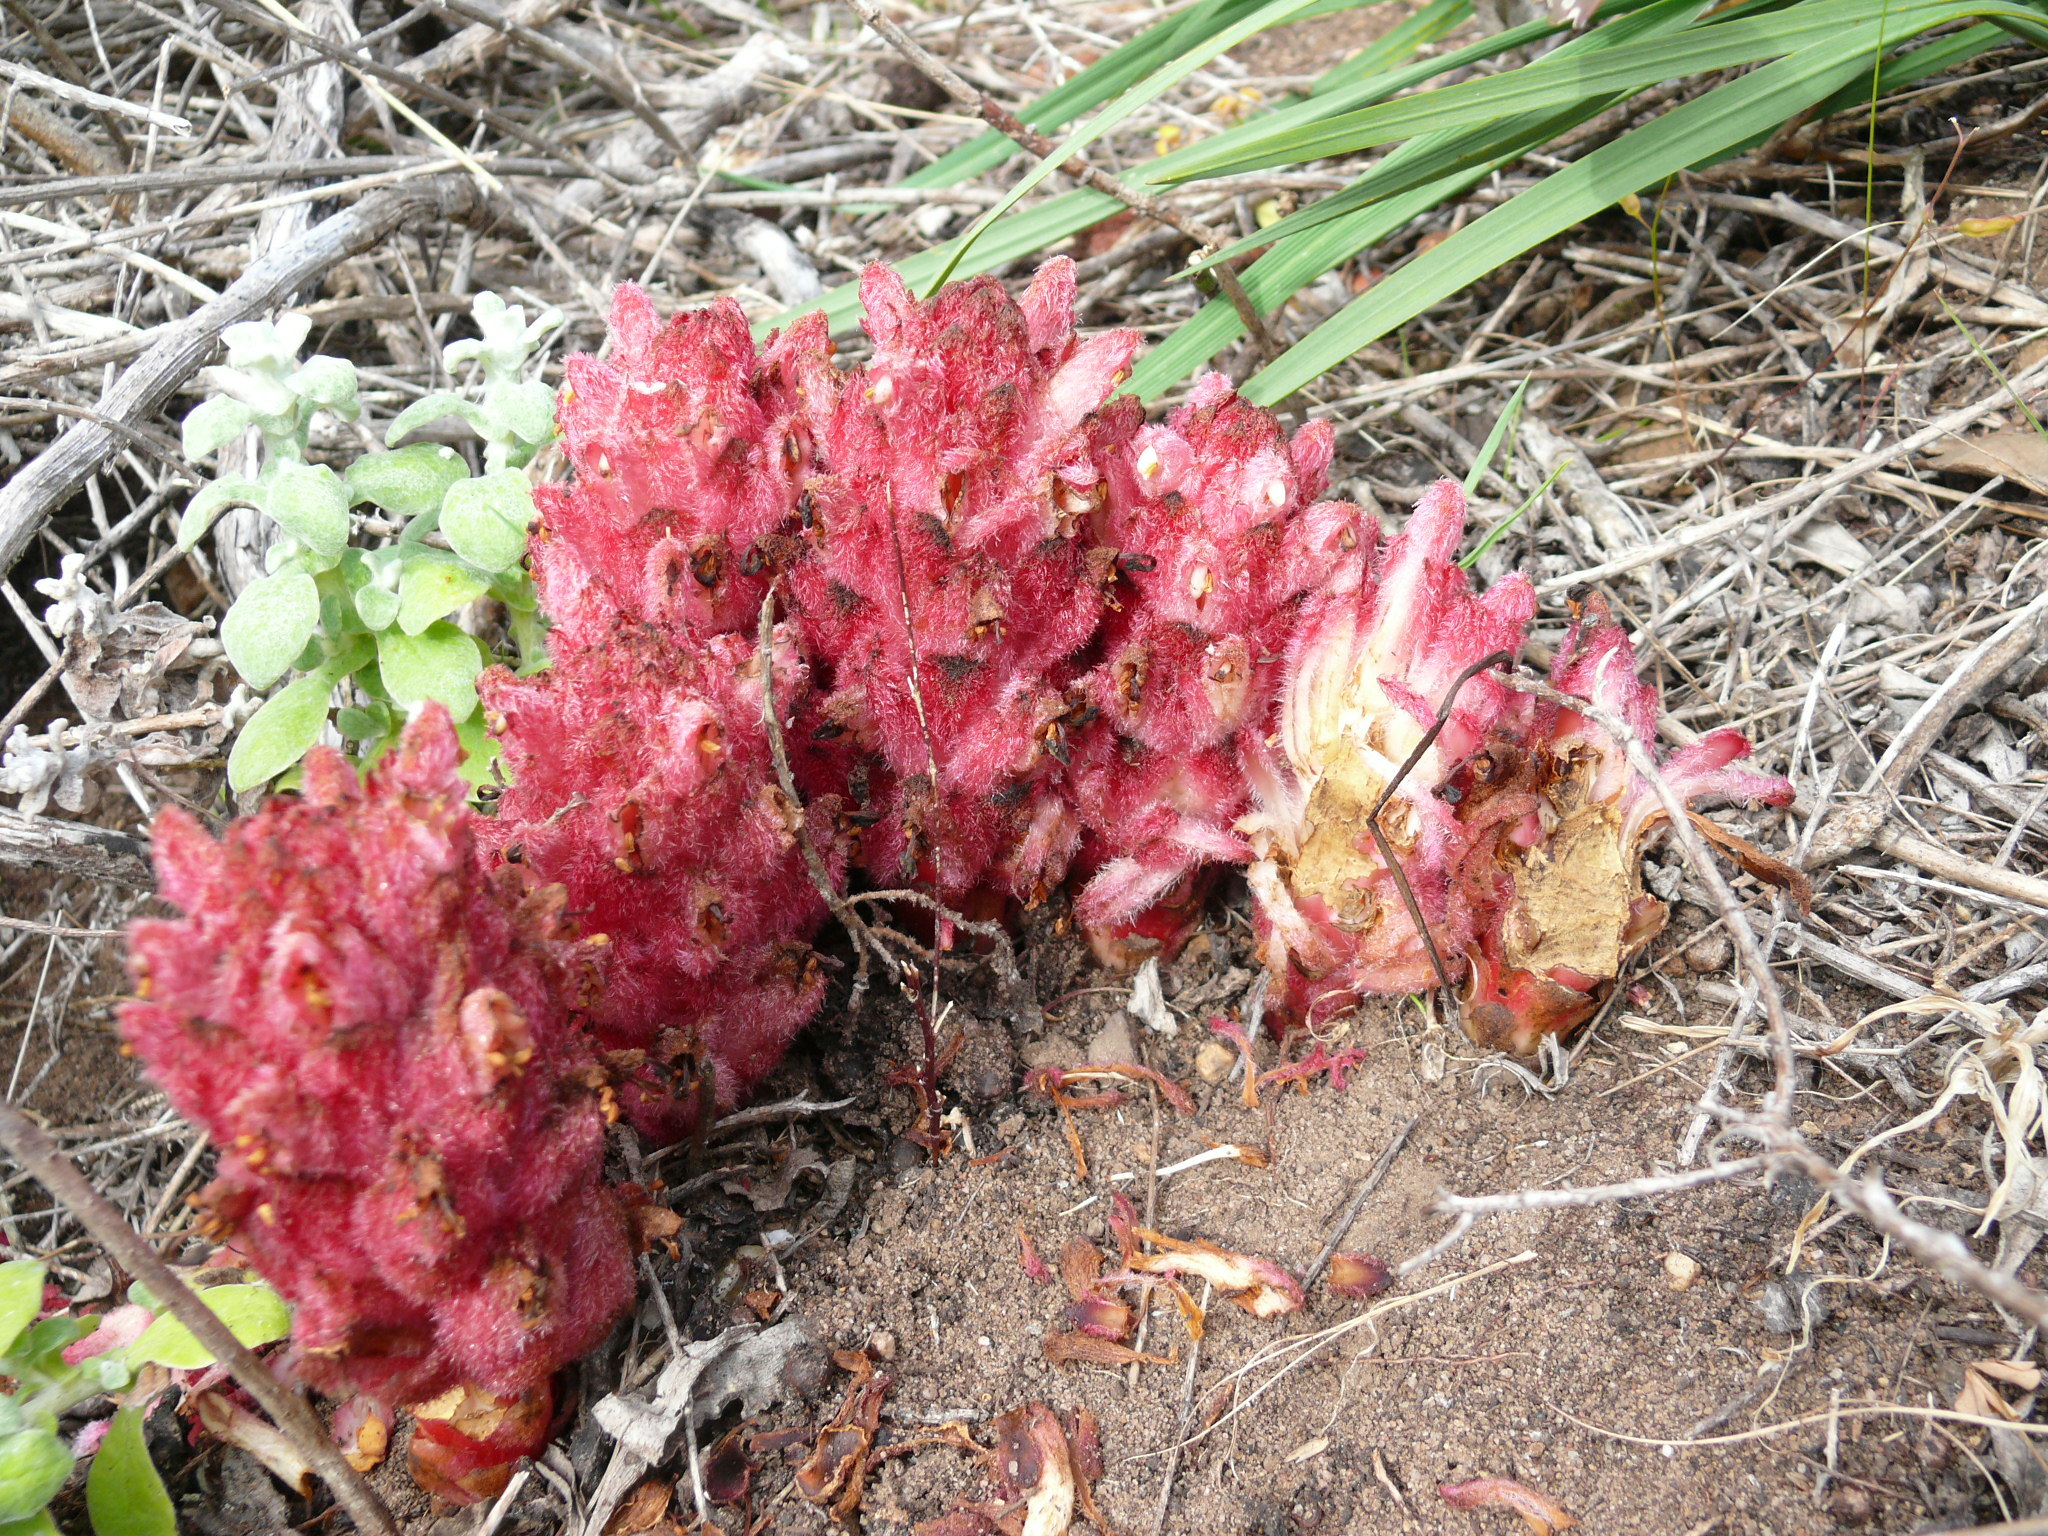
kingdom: Plantae
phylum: Tracheophyta
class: Magnoliopsida
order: Lamiales
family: Orobanchaceae
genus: Hyobanche
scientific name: Hyobanche sanguinea
